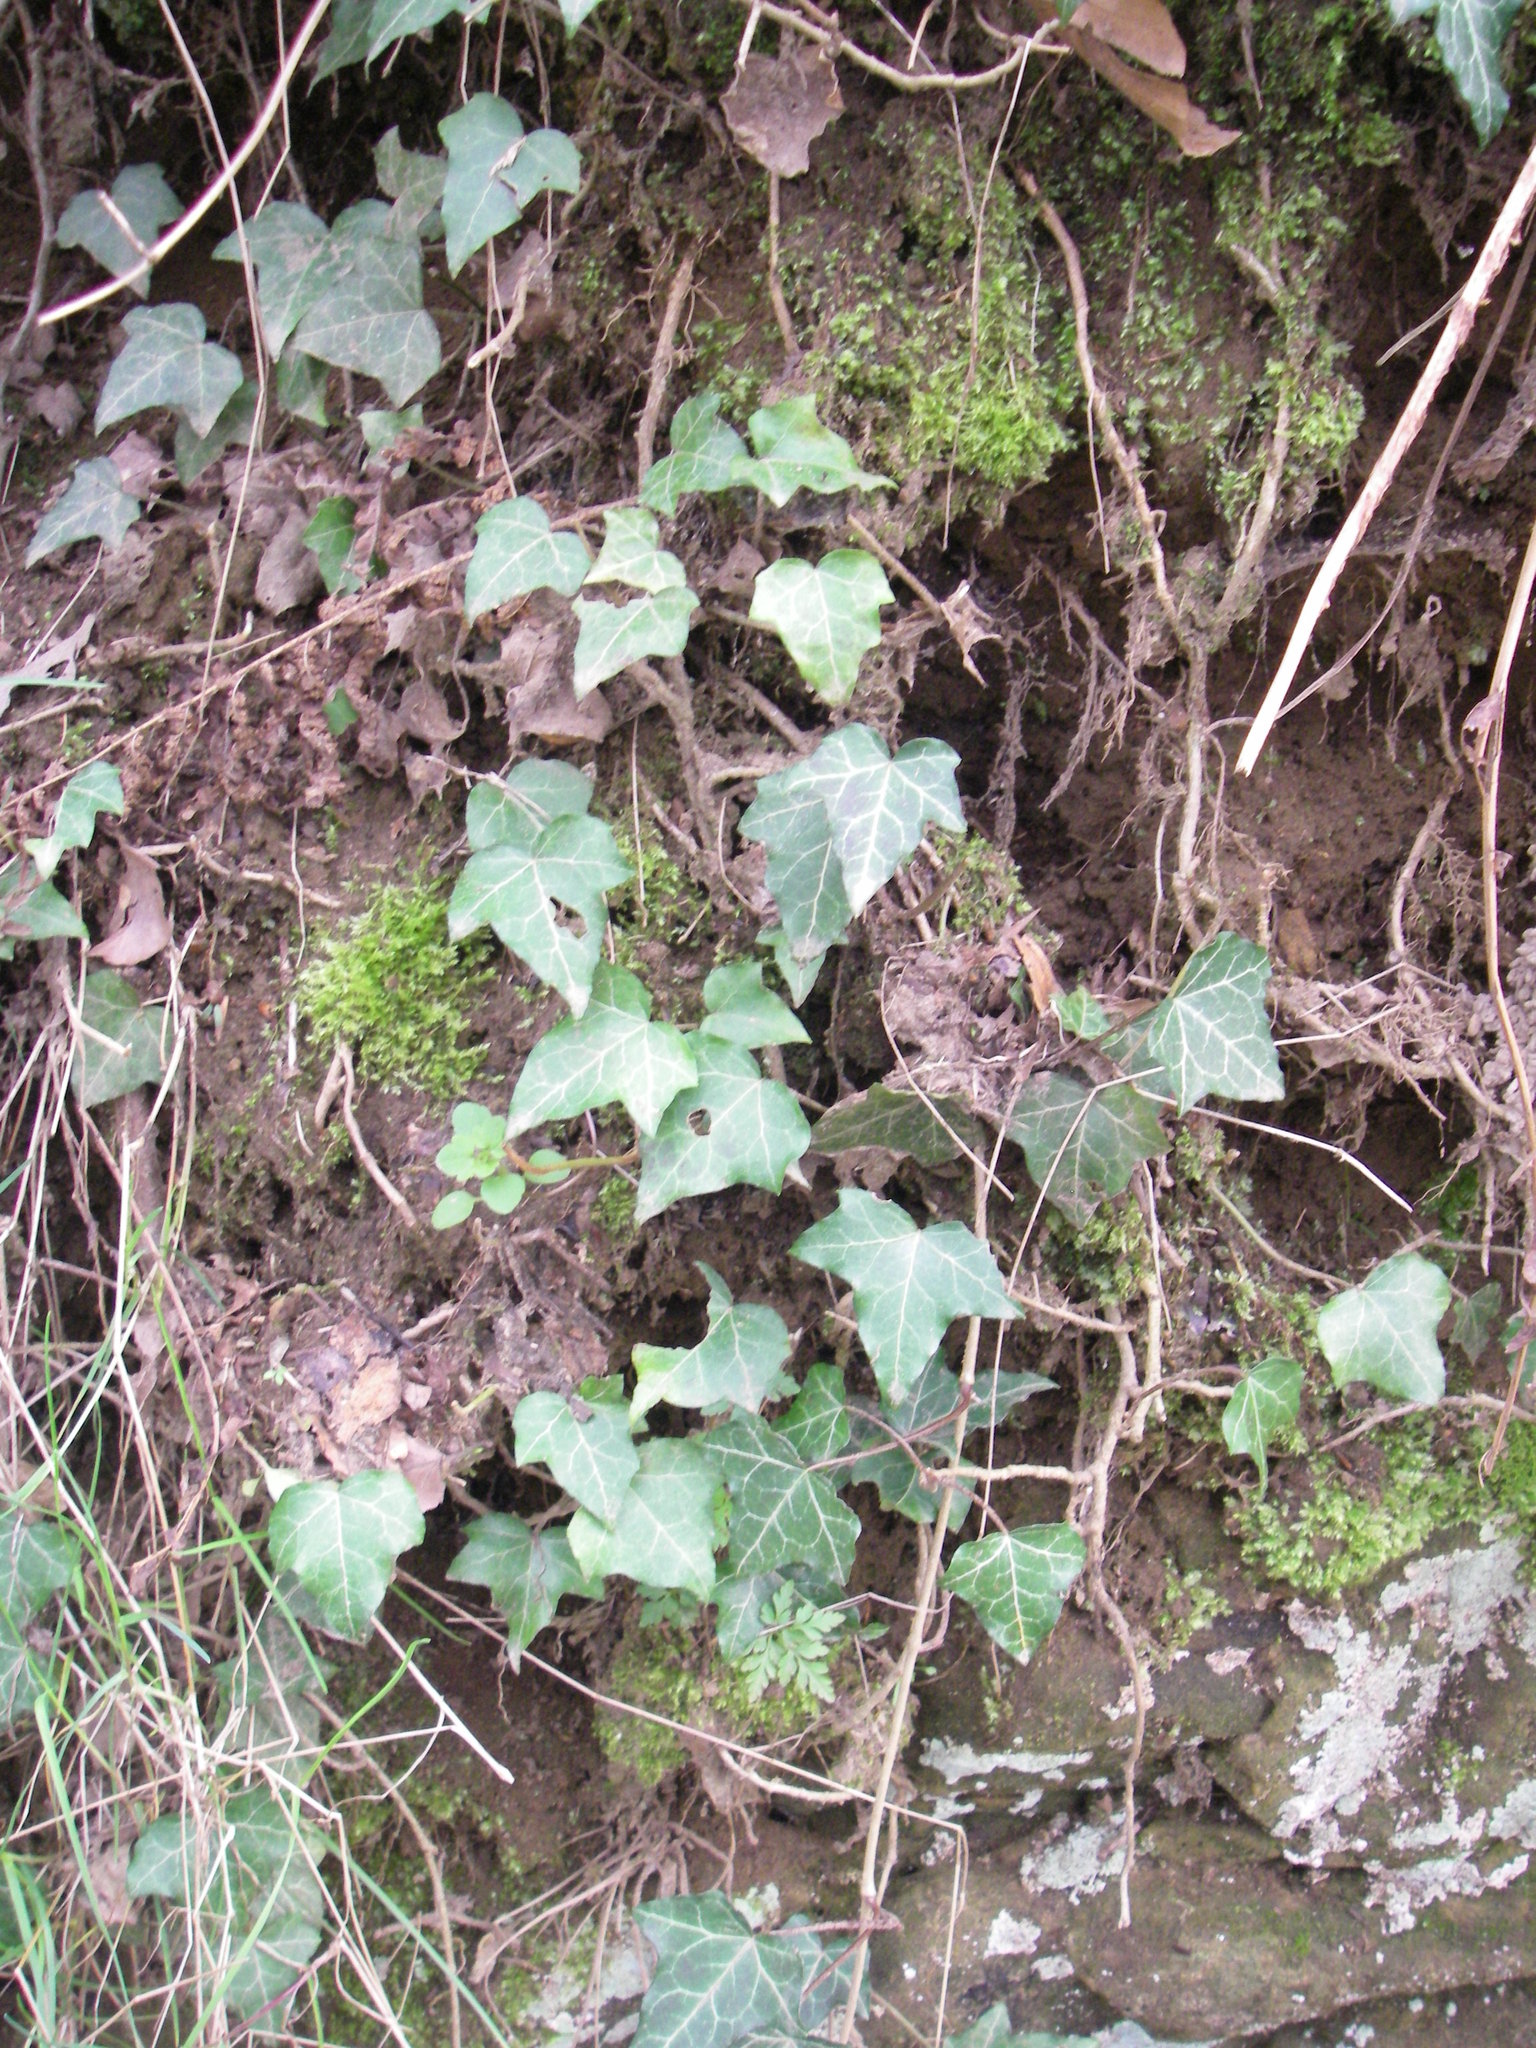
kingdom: Plantae
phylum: Tracheophyta
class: Magnoliopsida
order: Apiales
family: Araliaceae
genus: Hedera
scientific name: Hedera helix
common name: Ivy
